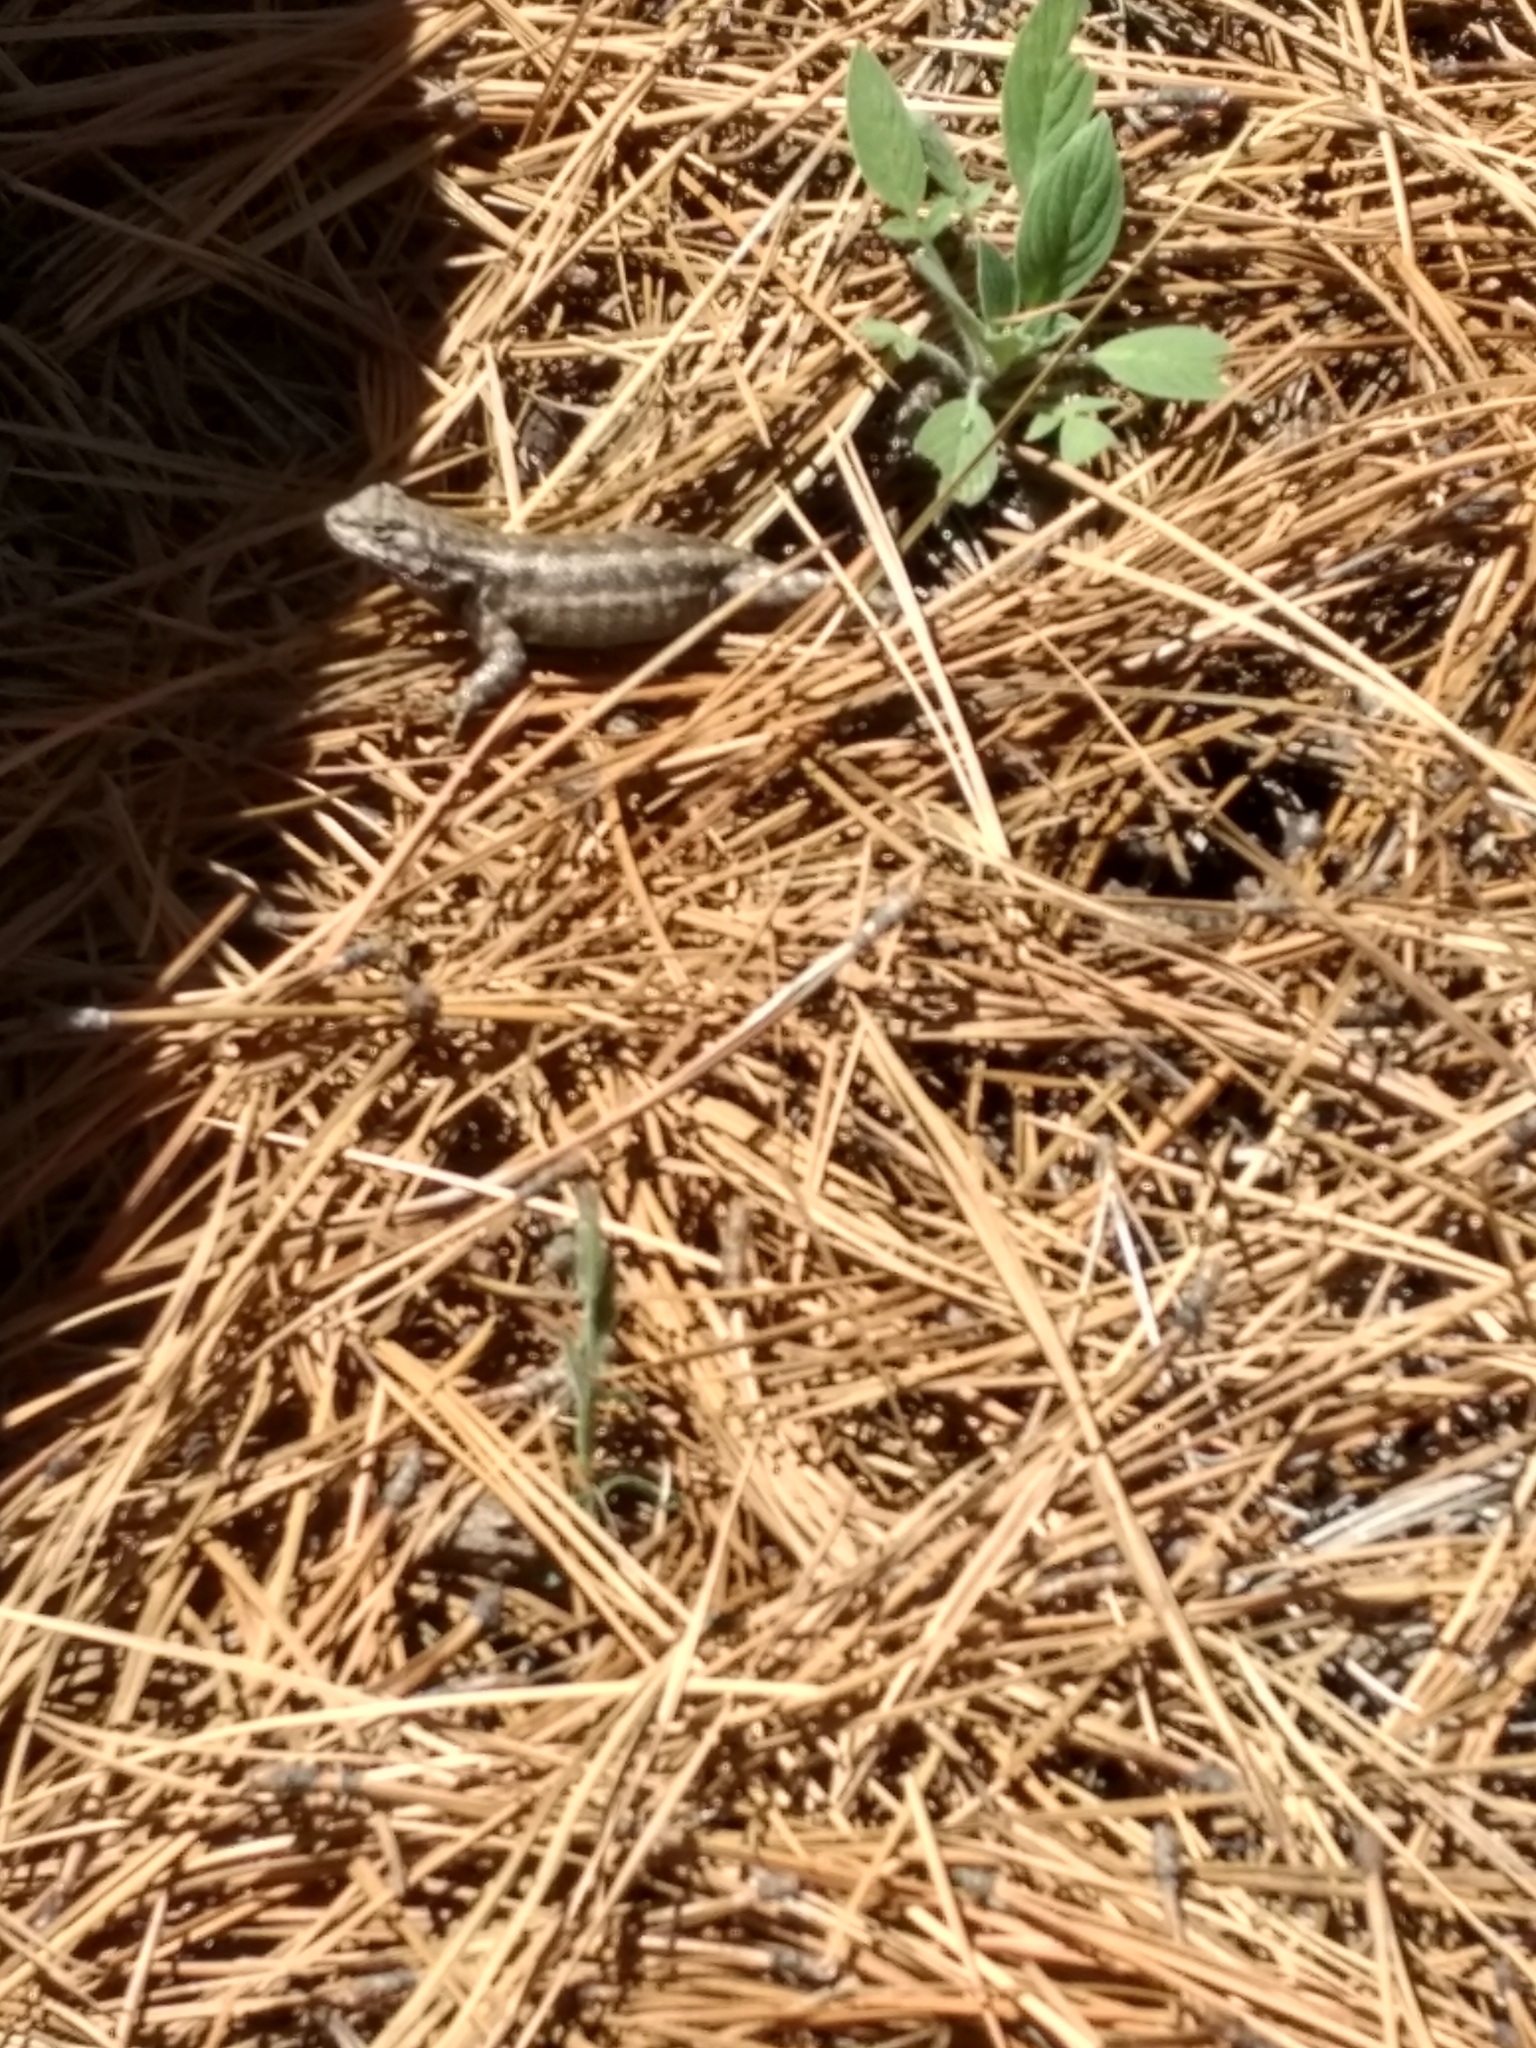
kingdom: Animalia
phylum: Chordata
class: Squamata
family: Phrynosomatidae
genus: Sceloporus
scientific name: Sceloporus graciosus
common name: Sagebrush lizard
